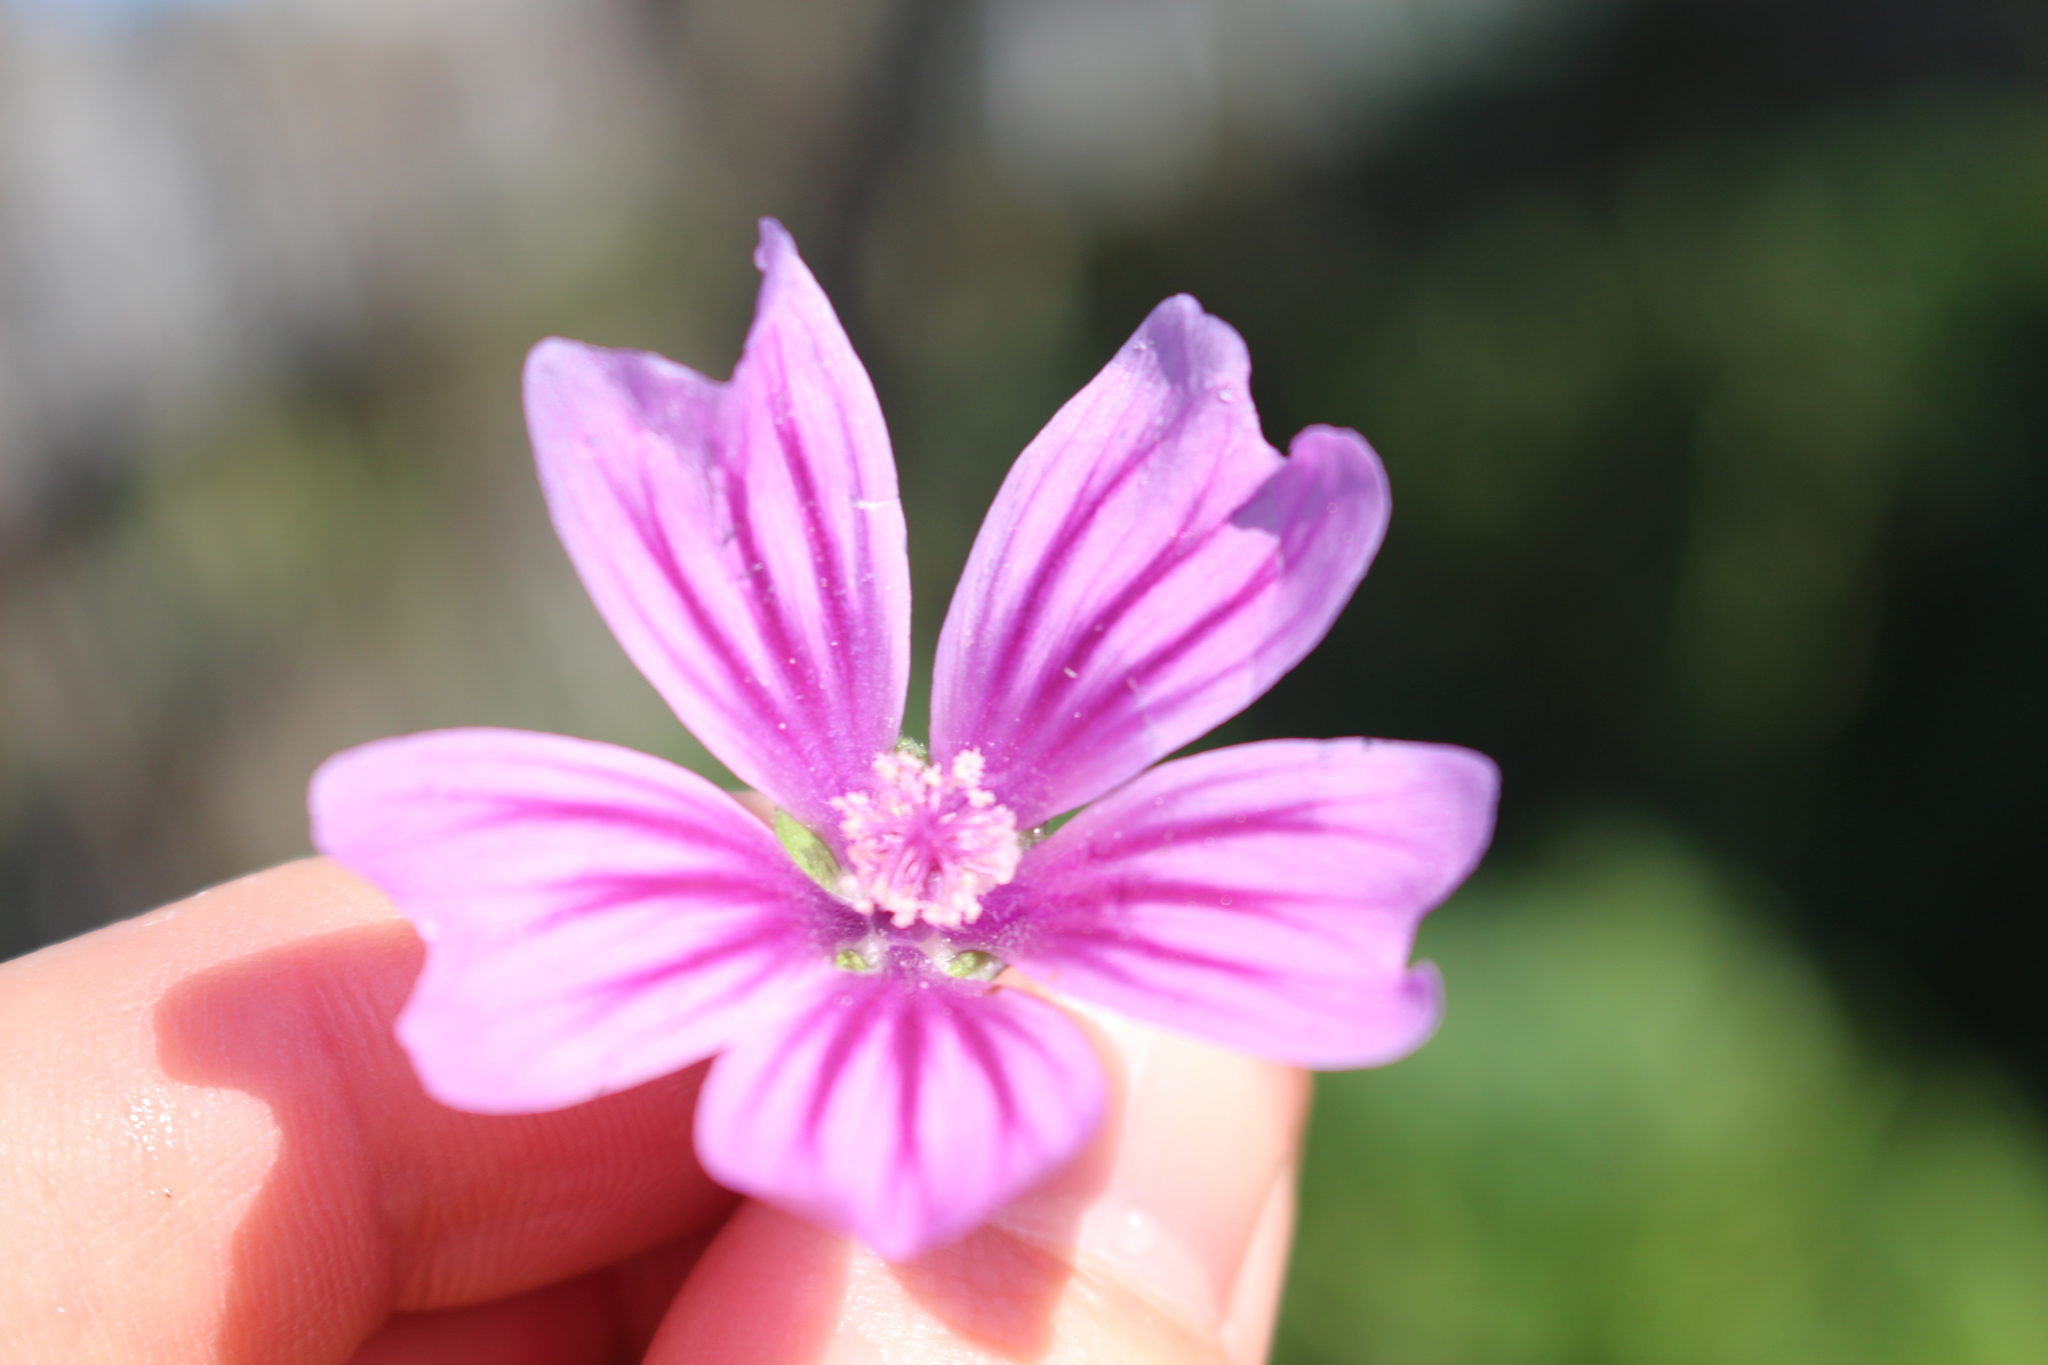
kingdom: Plantae
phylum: Tracheophyta
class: Magnoliopsida
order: Malvales
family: Malvaceae
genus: Malva
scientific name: Malva sylvestris
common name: Common mallow
